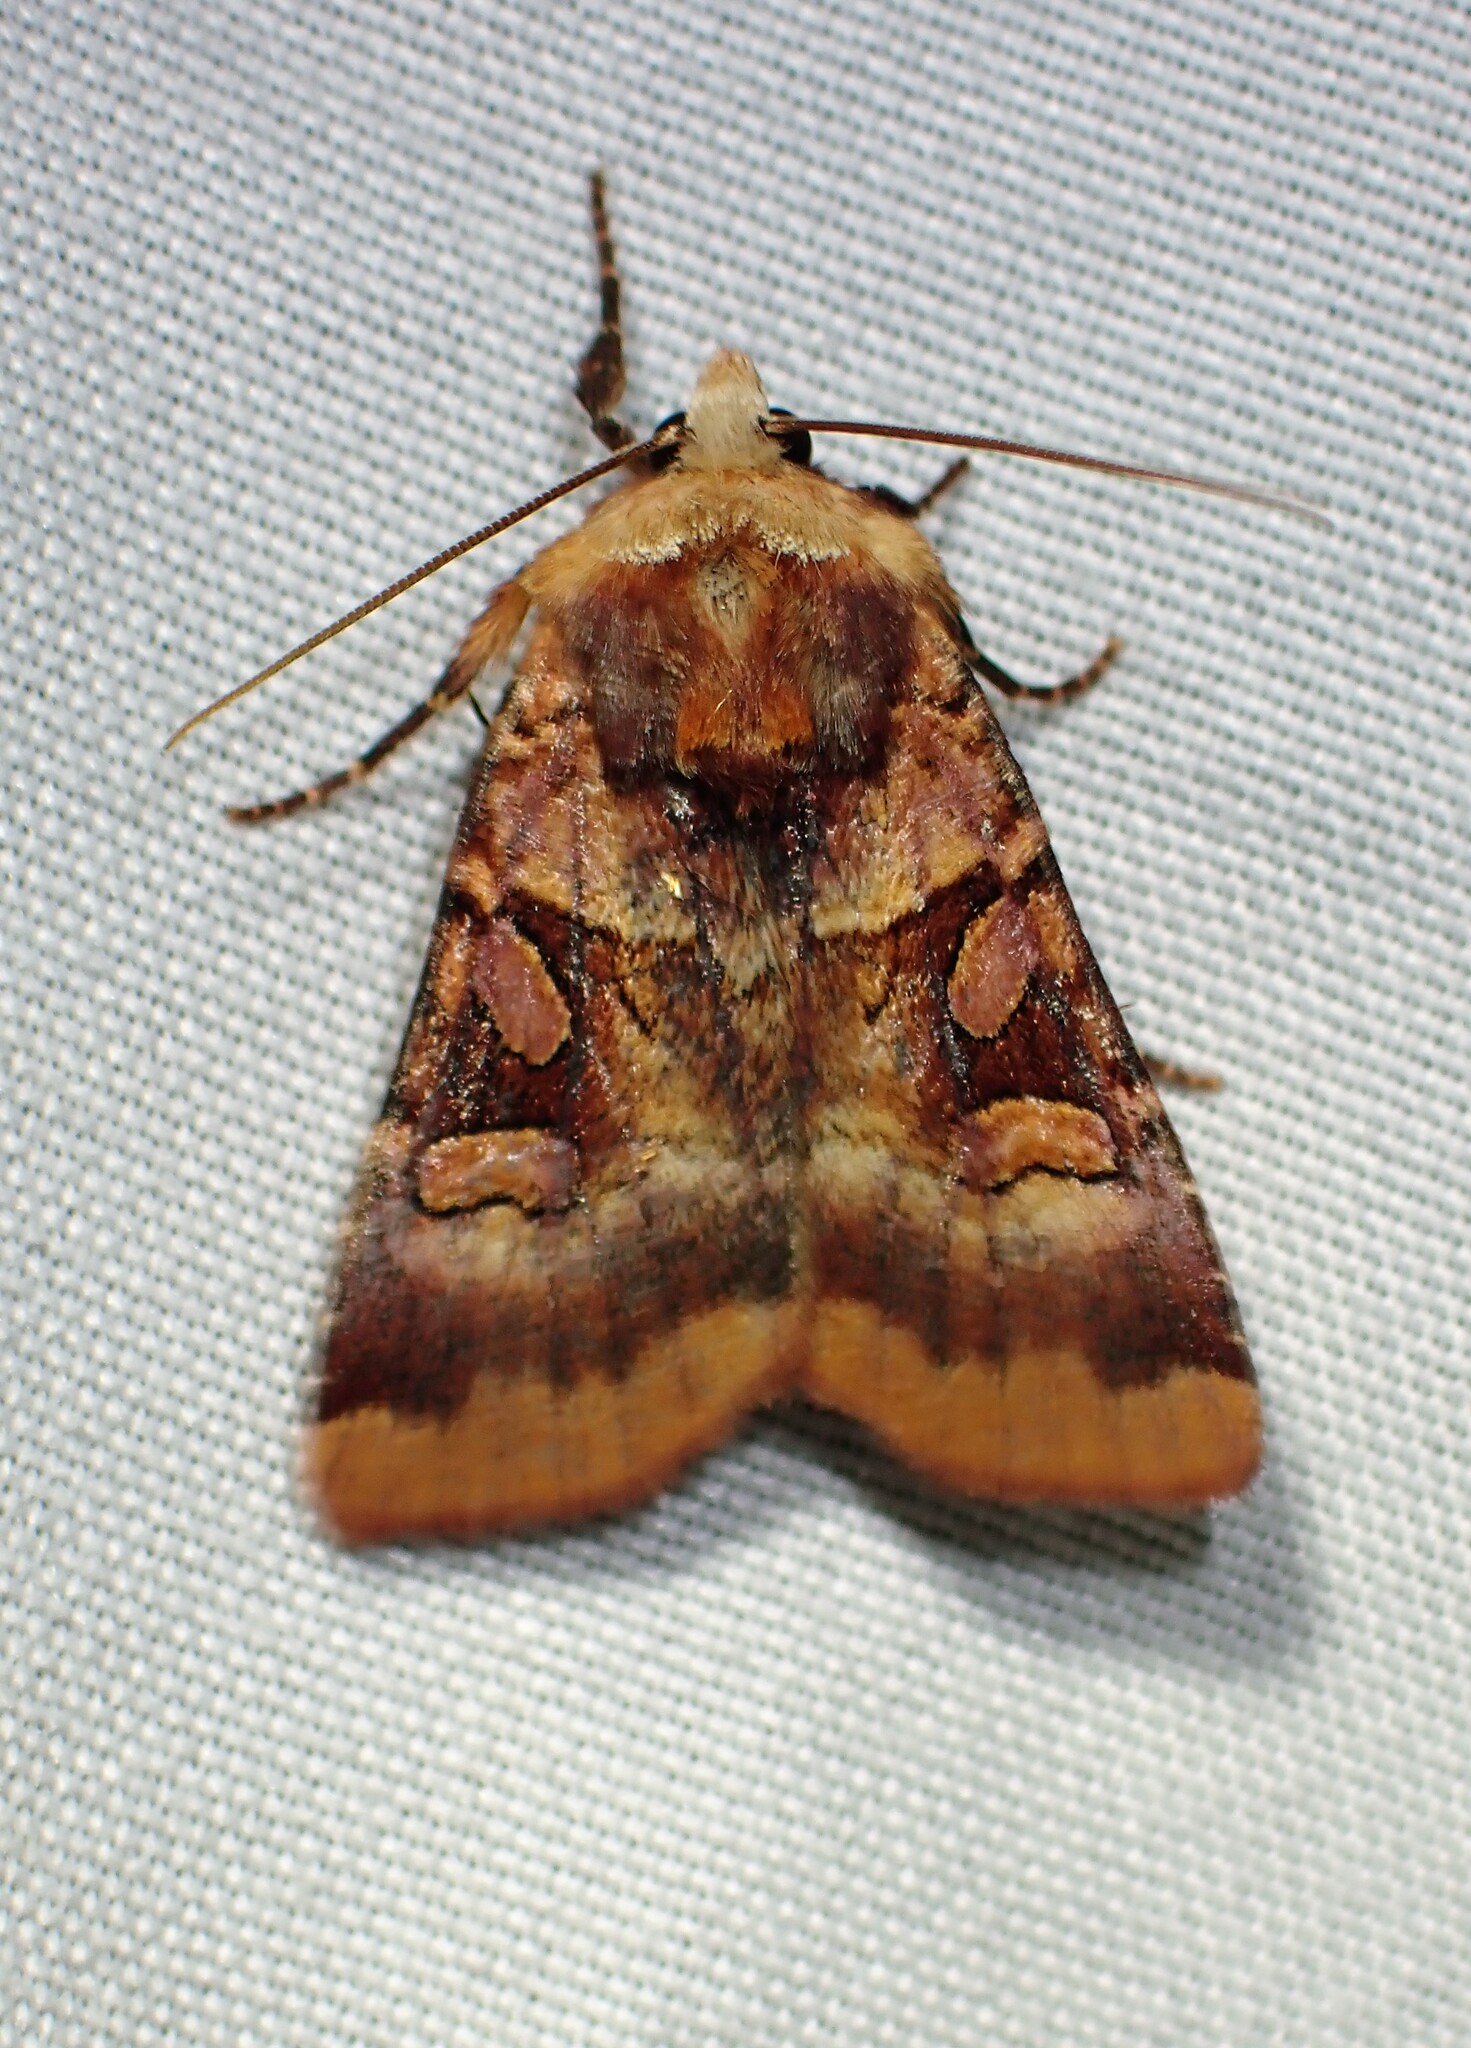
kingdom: Animalia
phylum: Arthropoda
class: Insecta
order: Lepidoptera
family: Noctuidae
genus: Xestia
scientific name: Xestia oblata
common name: Rosy dart
